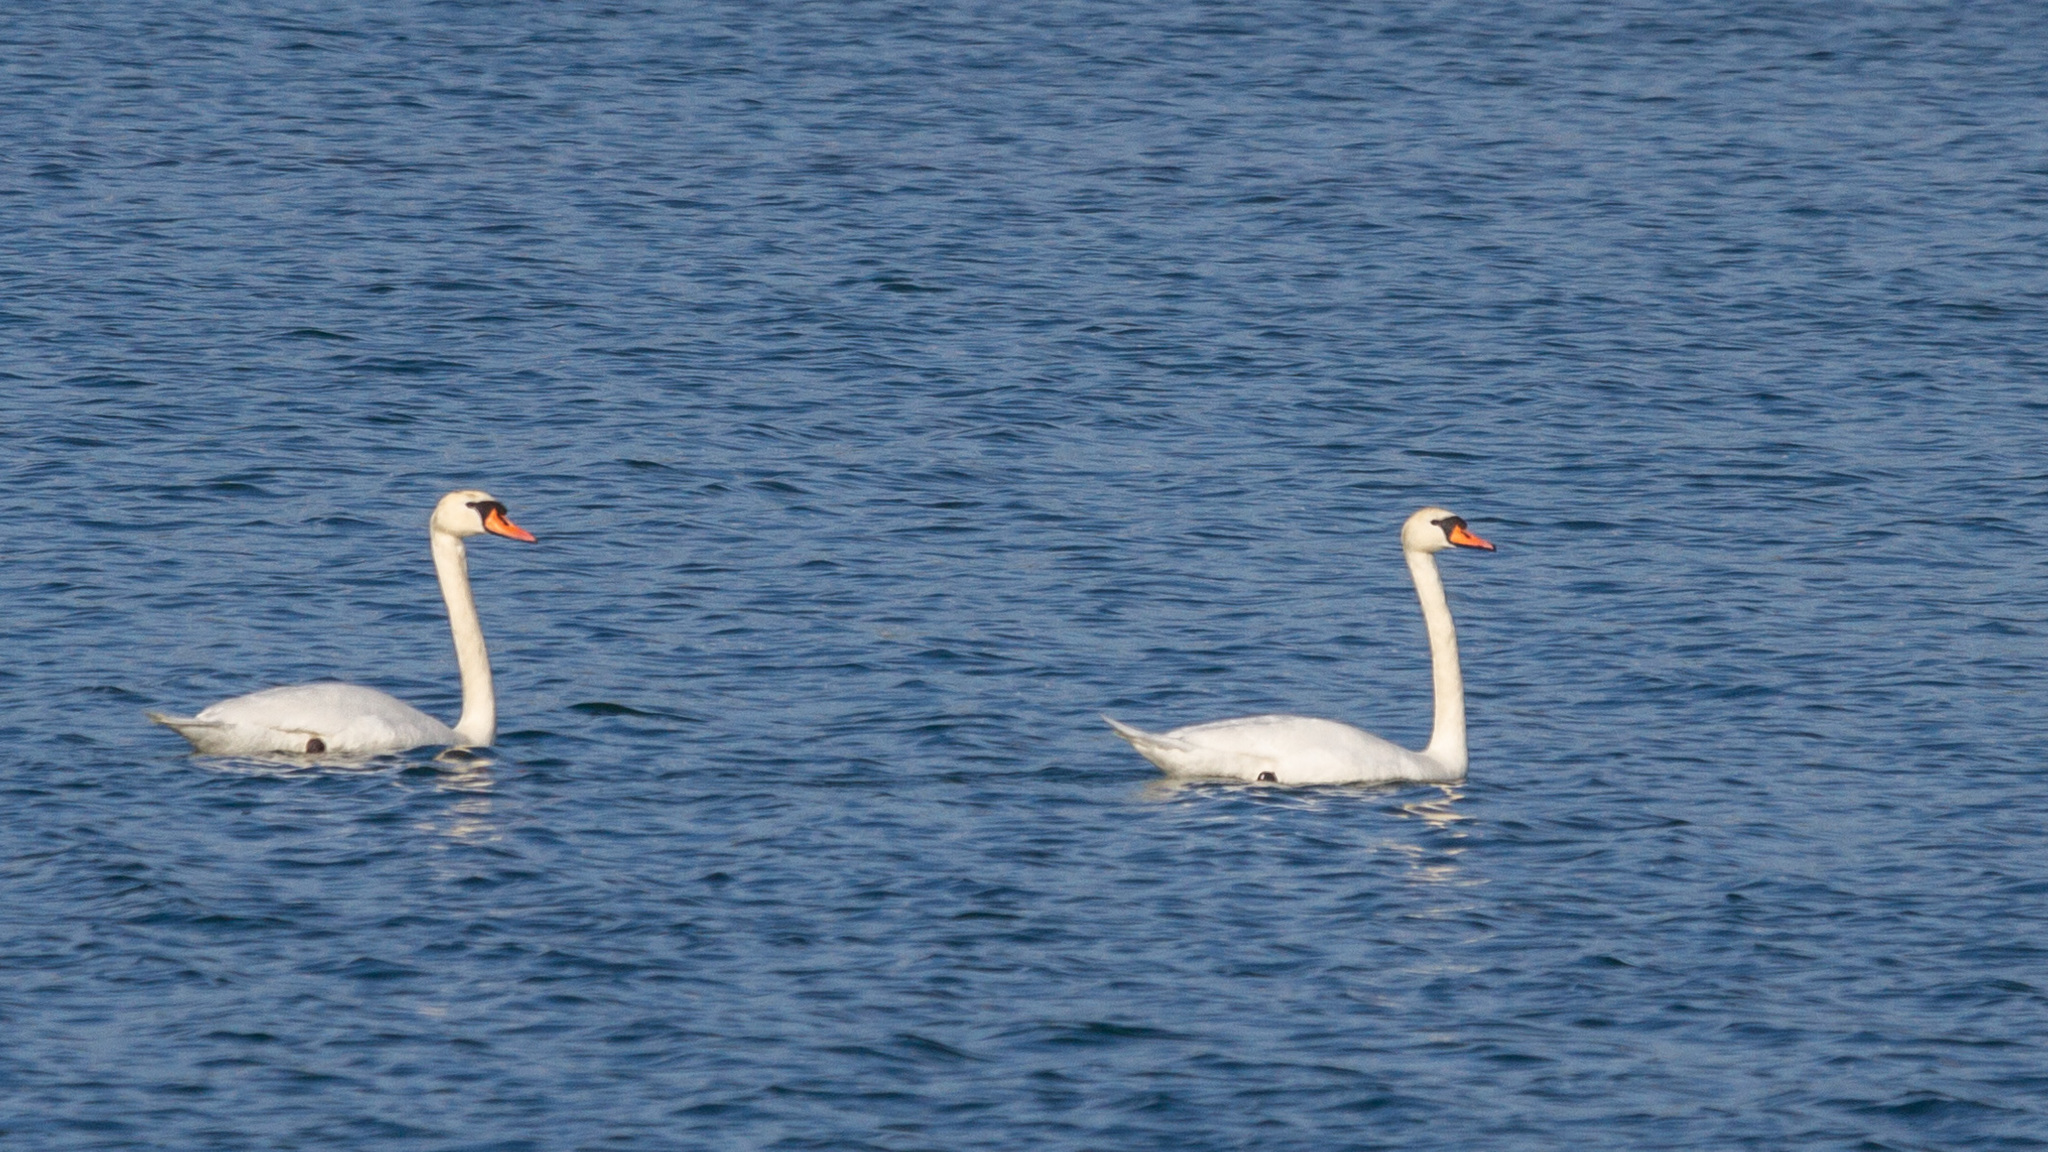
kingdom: Animalia
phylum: Chordata
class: Aves
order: Anseriformes
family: Anatidae
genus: Cygnus
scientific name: Cygnus olor
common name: Mute swan
